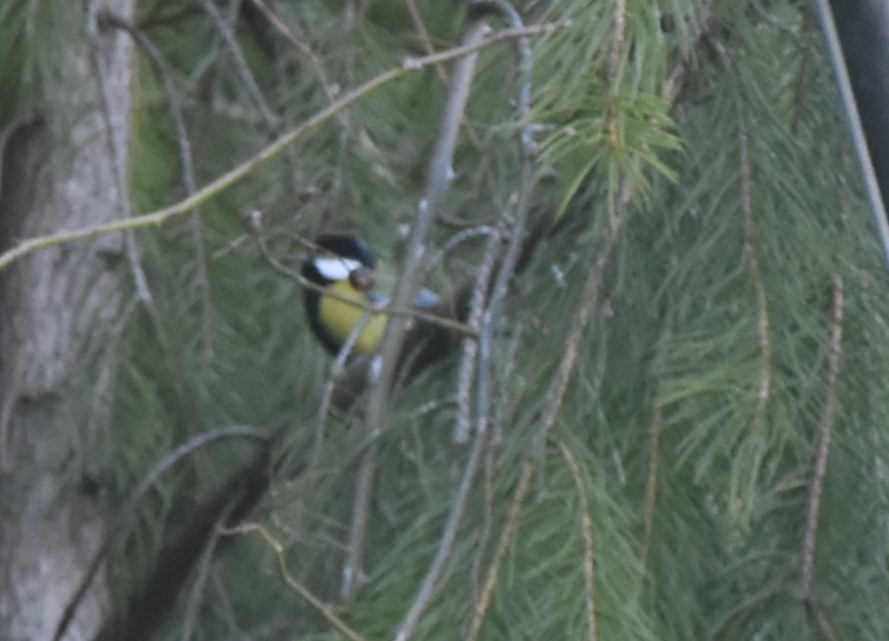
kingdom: Animalia
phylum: Chordata
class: Aves
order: Passeriformes
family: Paridae
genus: Parus
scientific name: Parus monticolus
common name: Green-backed tit
